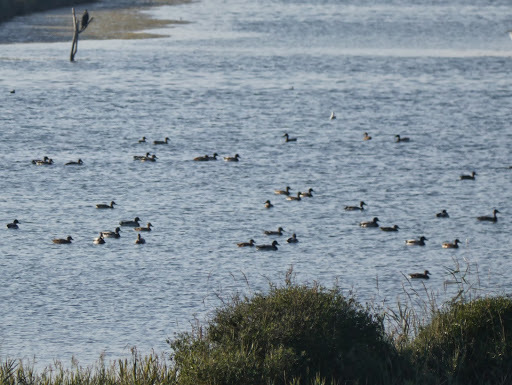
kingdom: Animalia
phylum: Chordata
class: Aves
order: Anseriformes
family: Anatidae
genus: Anas
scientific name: Anas platyrhynchos
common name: Mallard
